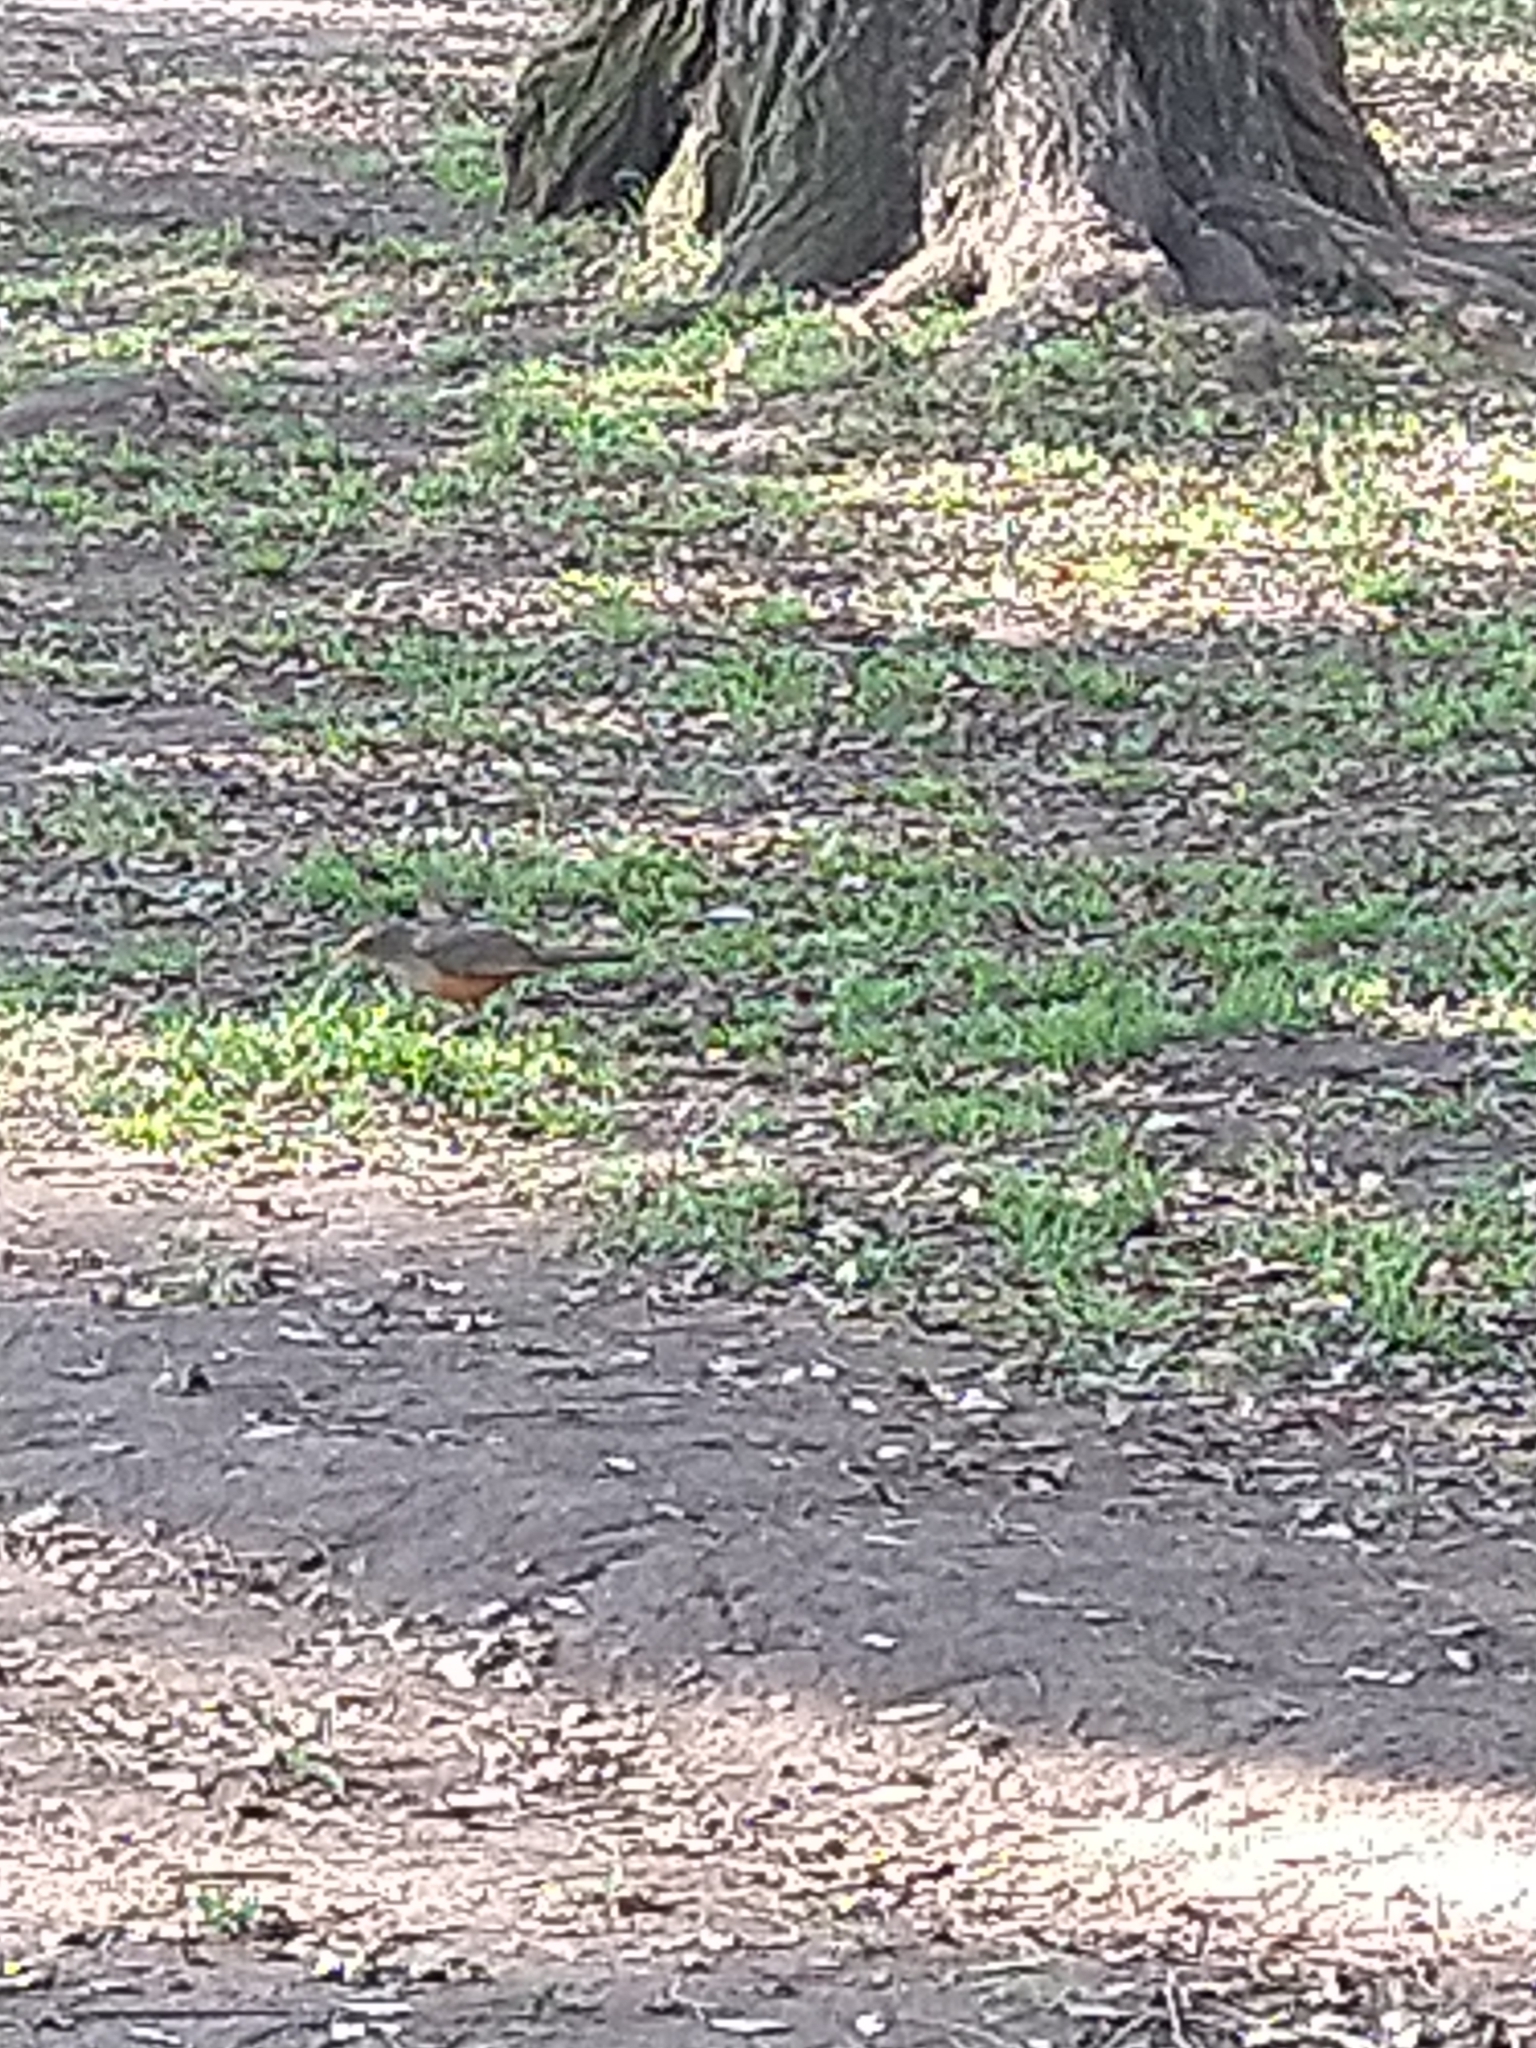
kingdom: Animalia
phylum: Chordata
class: Aves
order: Passeriformes
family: Turdidae
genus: Turdus
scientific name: Turdus rufiventris
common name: Rufous-bellied thrush
